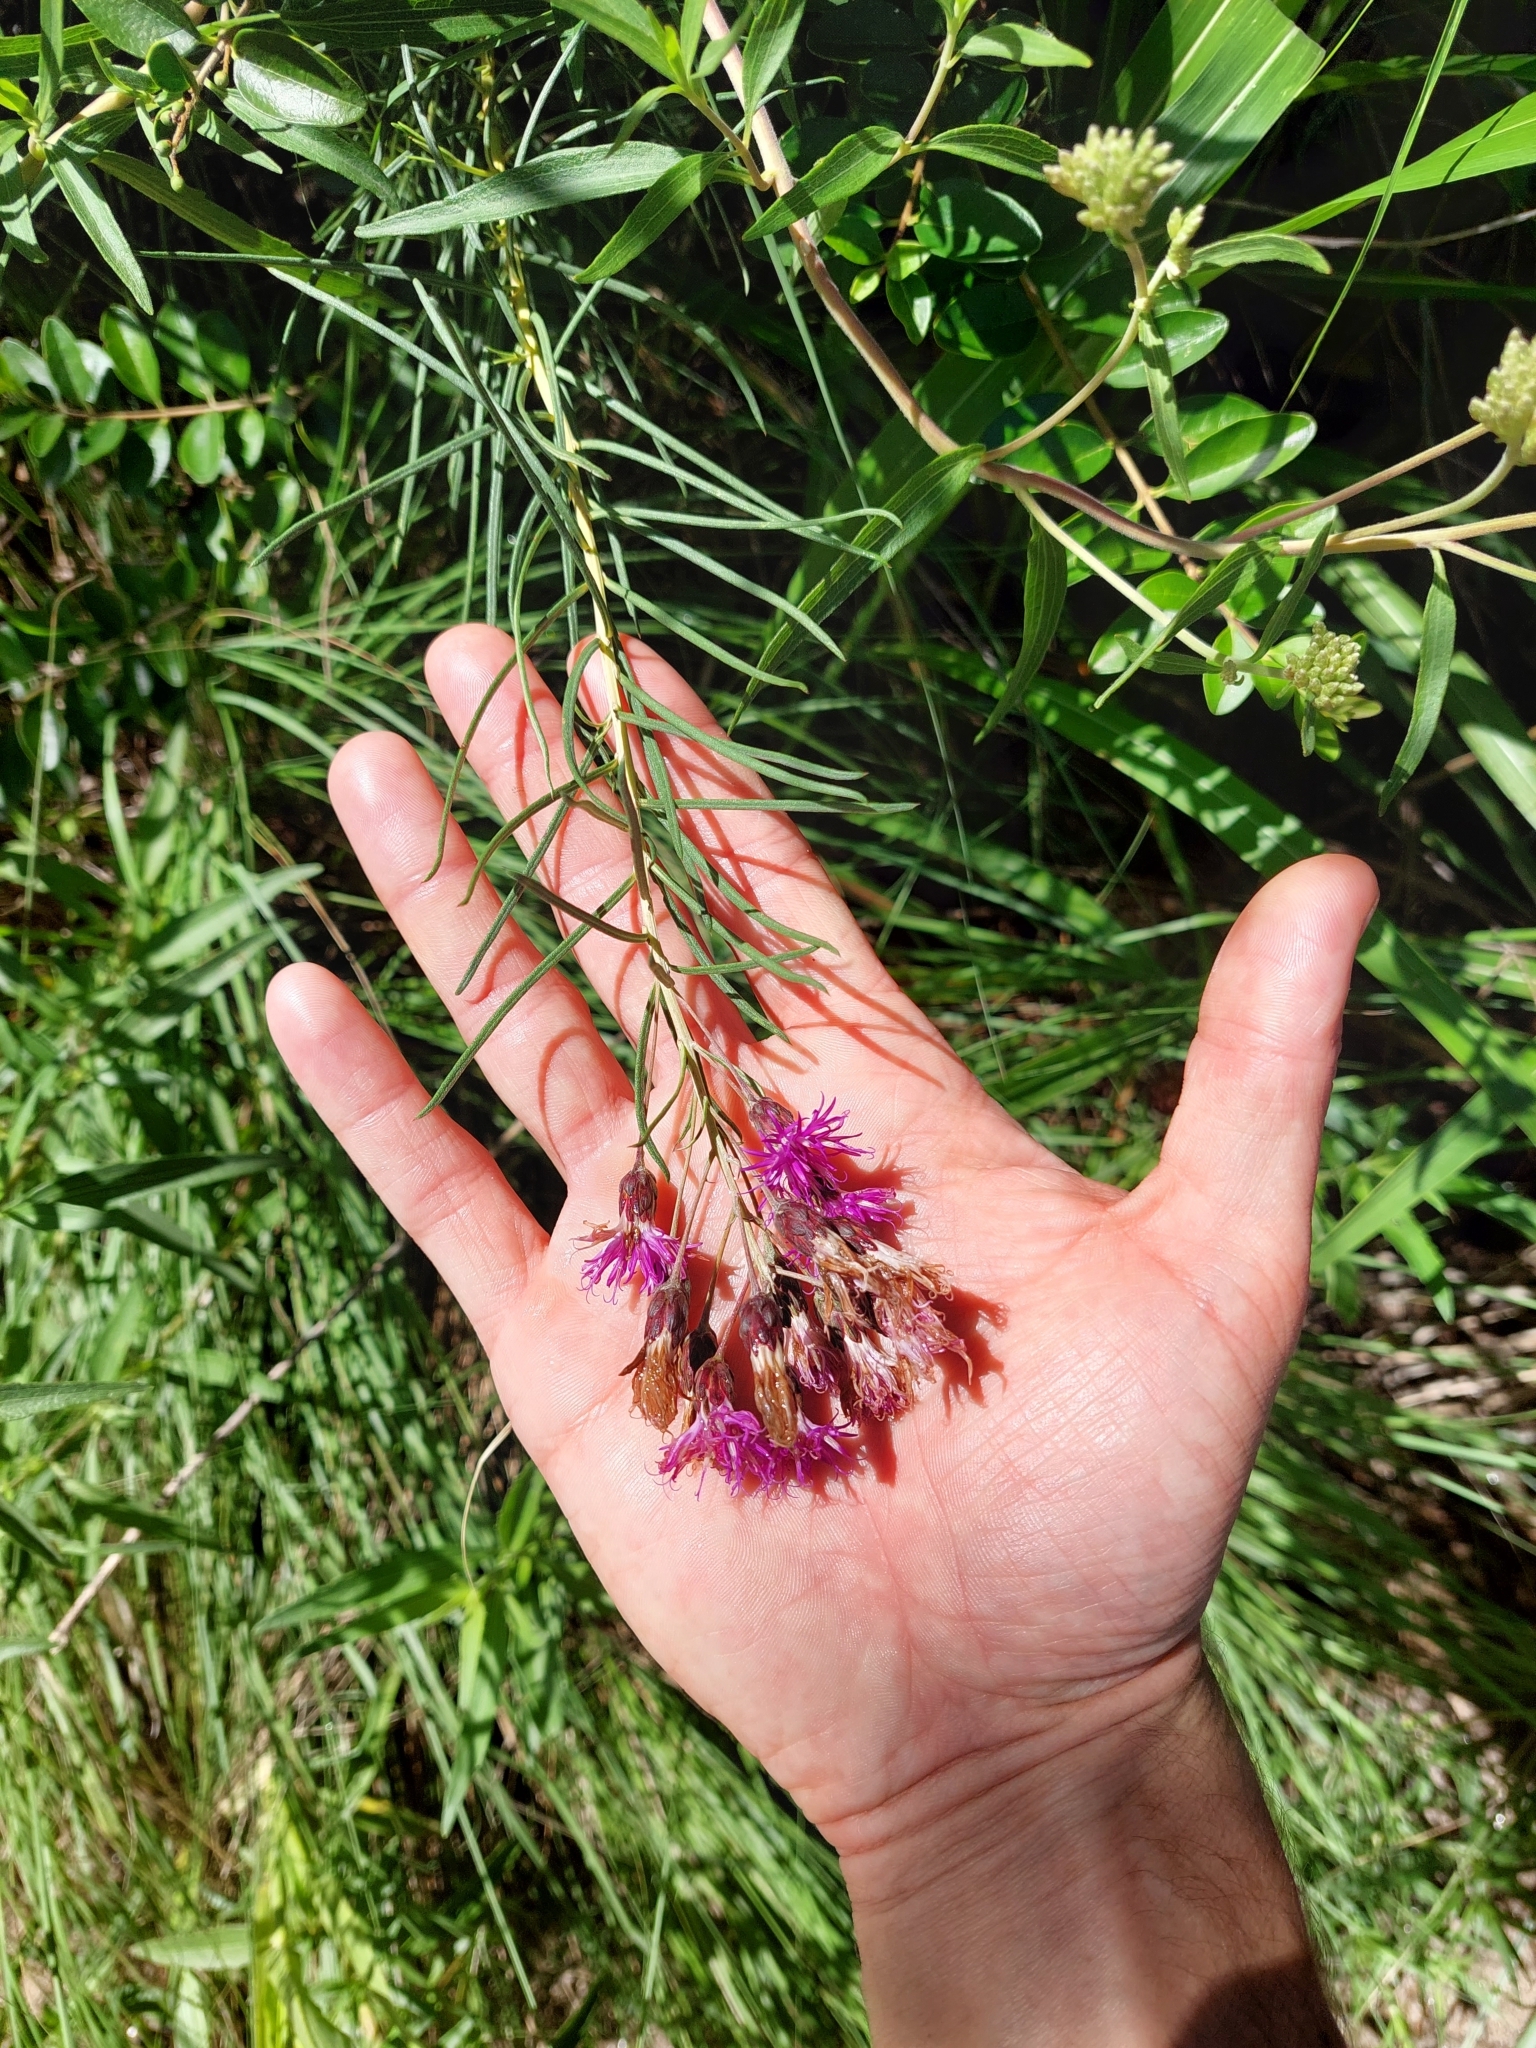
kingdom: Plantae
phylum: Tracheophyta
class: Magnoliopsida
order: Asterales
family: Asteraceae
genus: Vernonanthura
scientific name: Vernonanthura nudiflora
